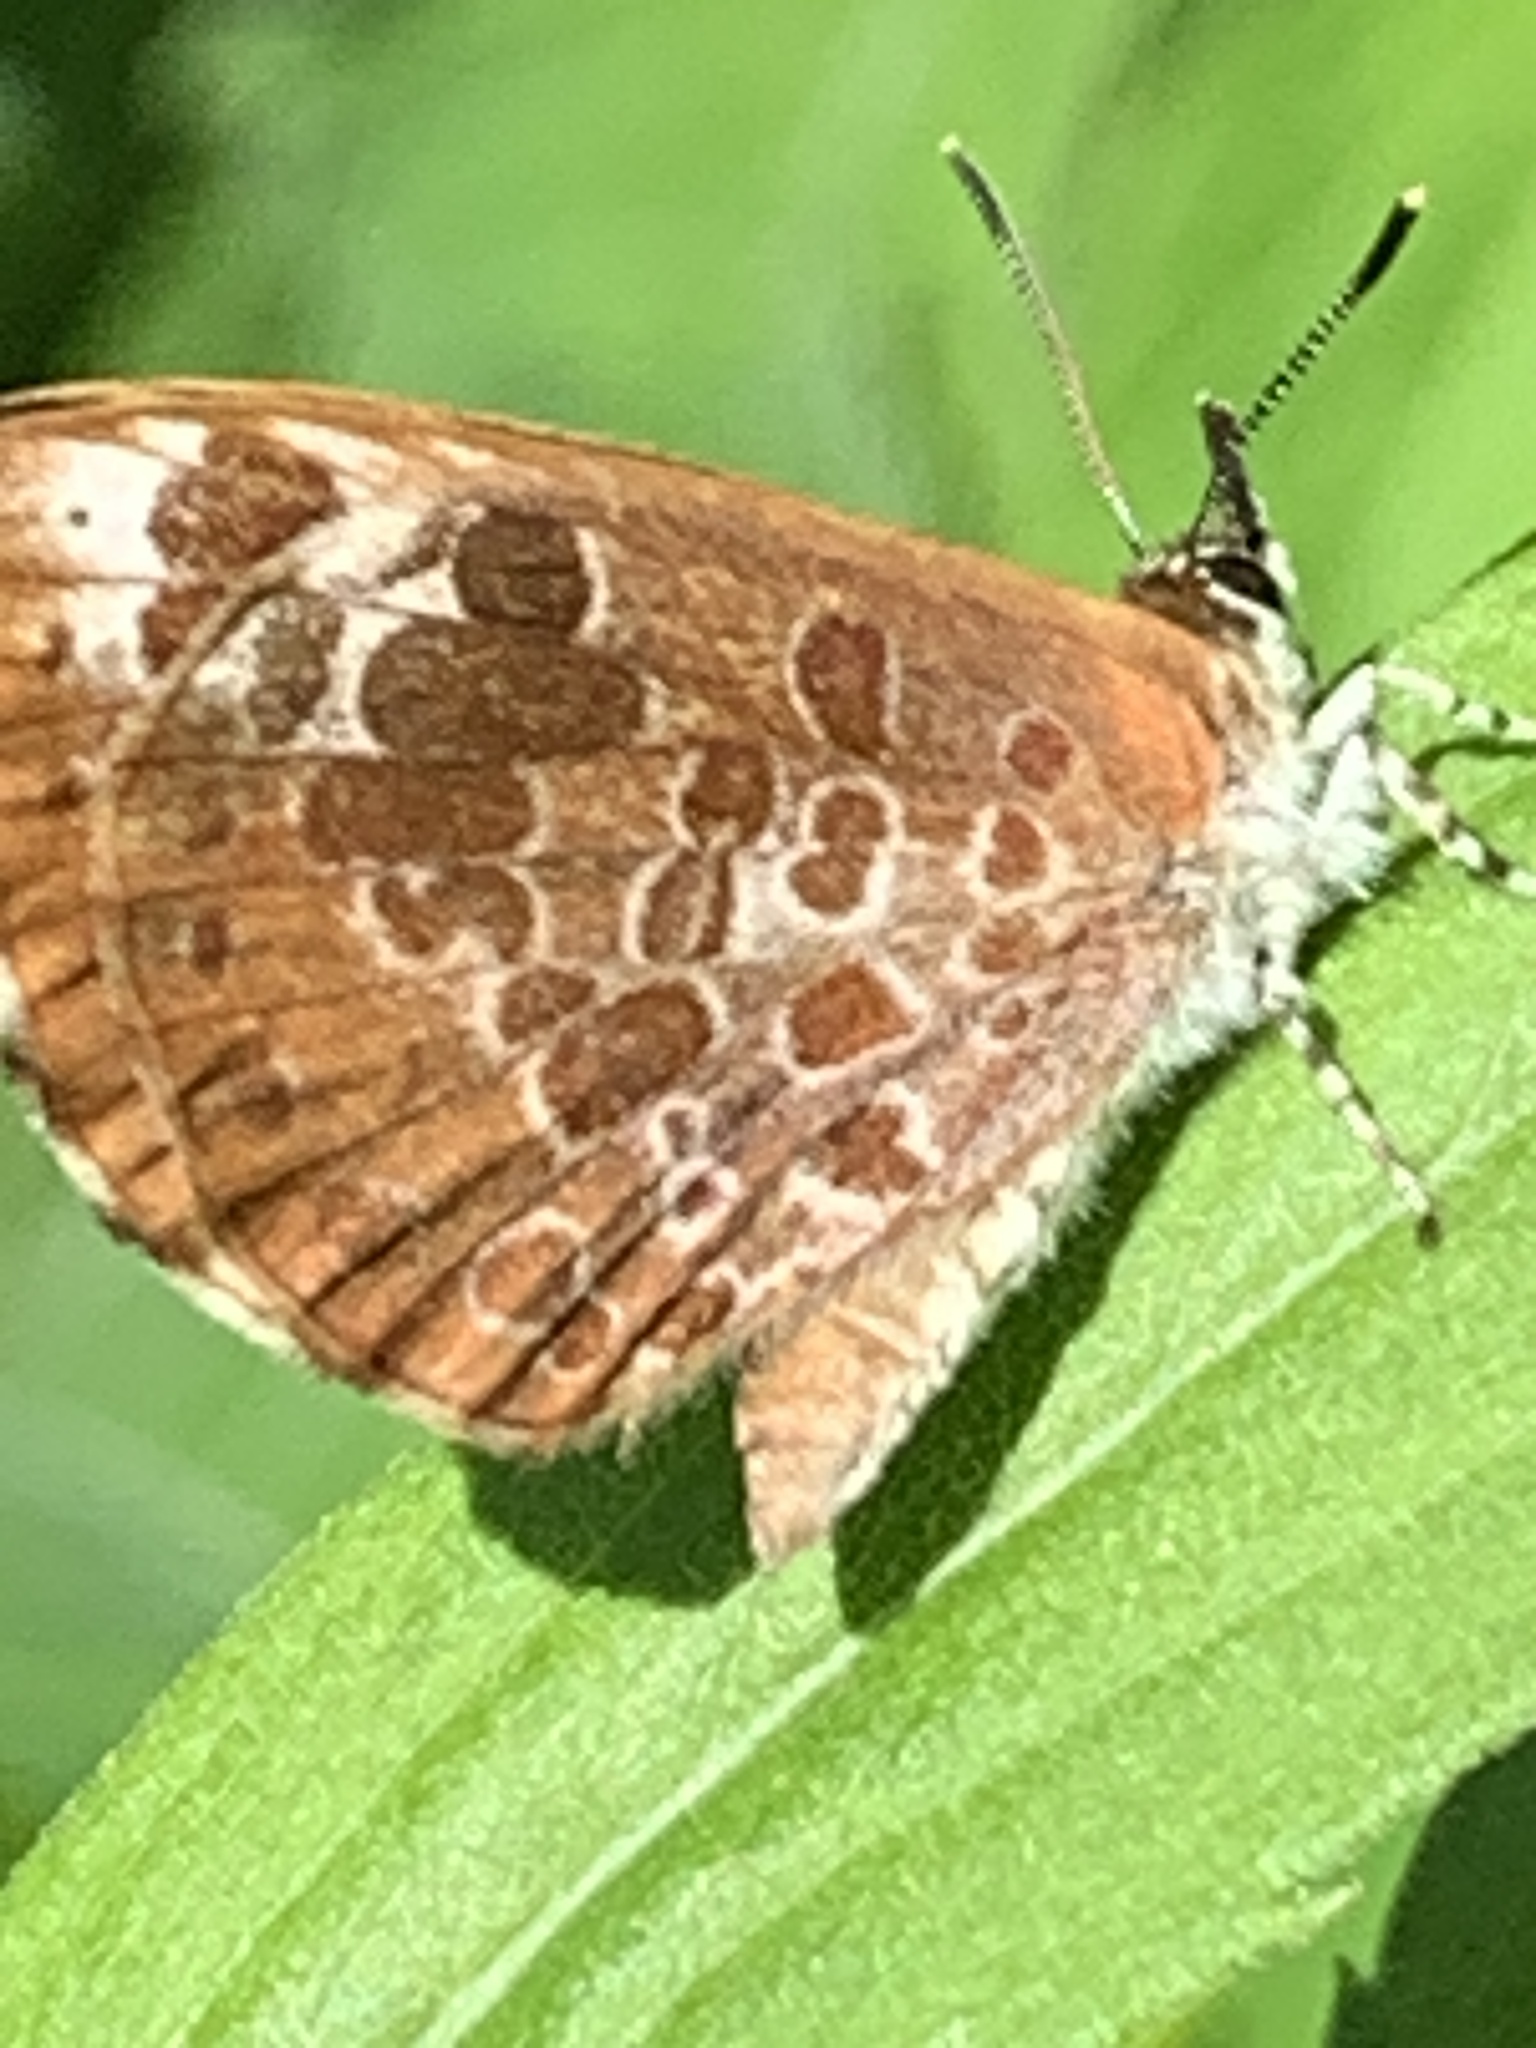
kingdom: Animalia
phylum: Arthropoda
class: Insecta
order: Lepidoptera
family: Lycaenidae
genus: Feniseca
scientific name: Feniseca tarquinius
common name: Harvester
